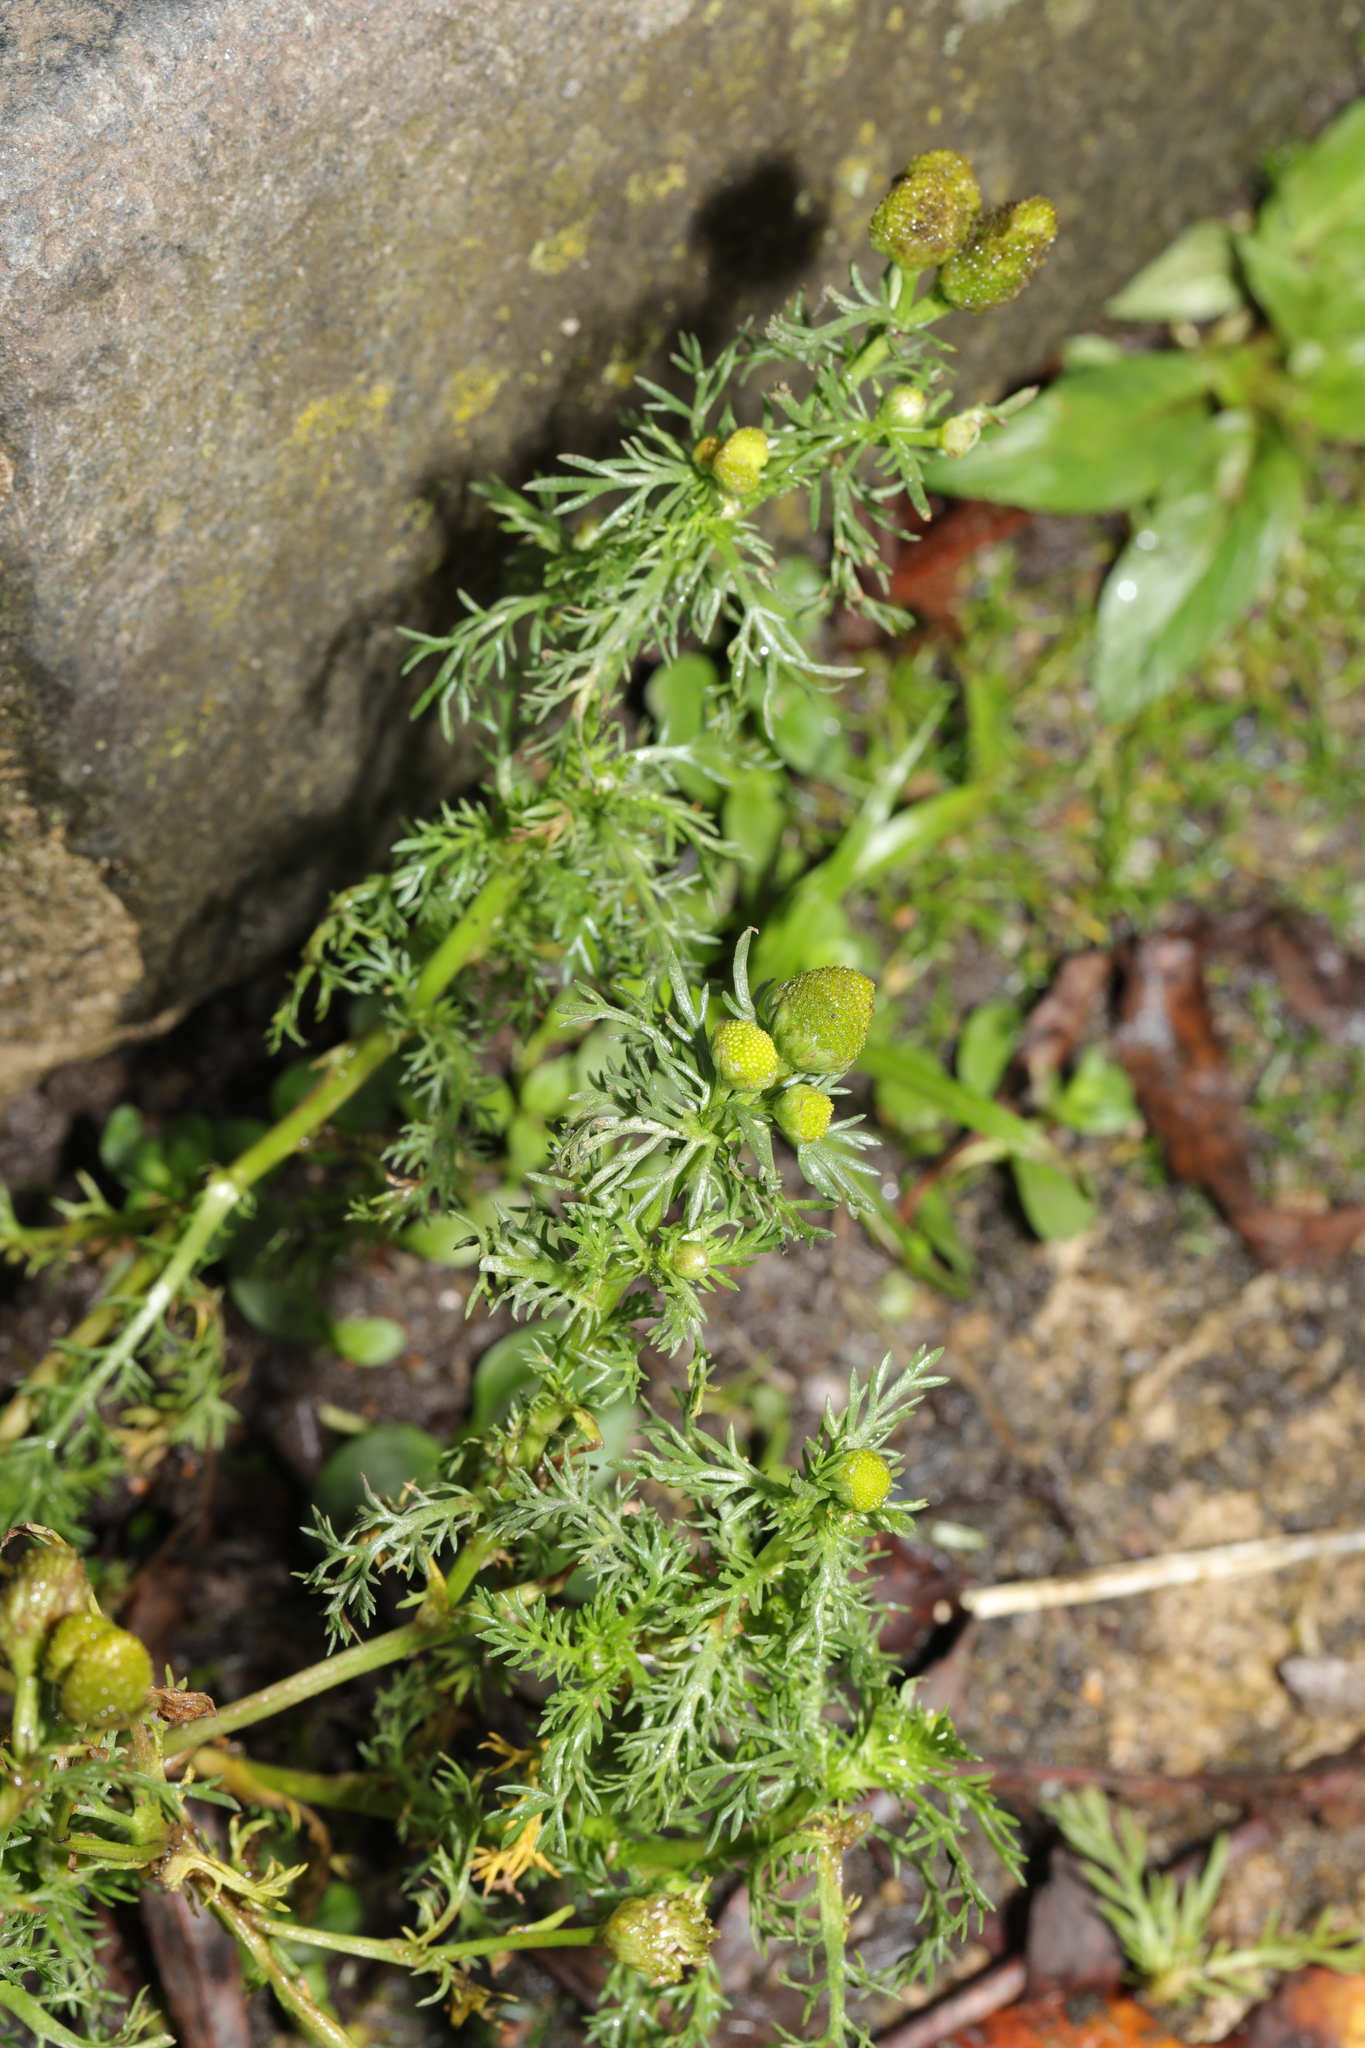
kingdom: Plantae
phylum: Tracheophyta
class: Magnoliopsida
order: Asterales
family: Asteraceae
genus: Matricaria
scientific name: Matricaria discoidea
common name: Disc mayweed
